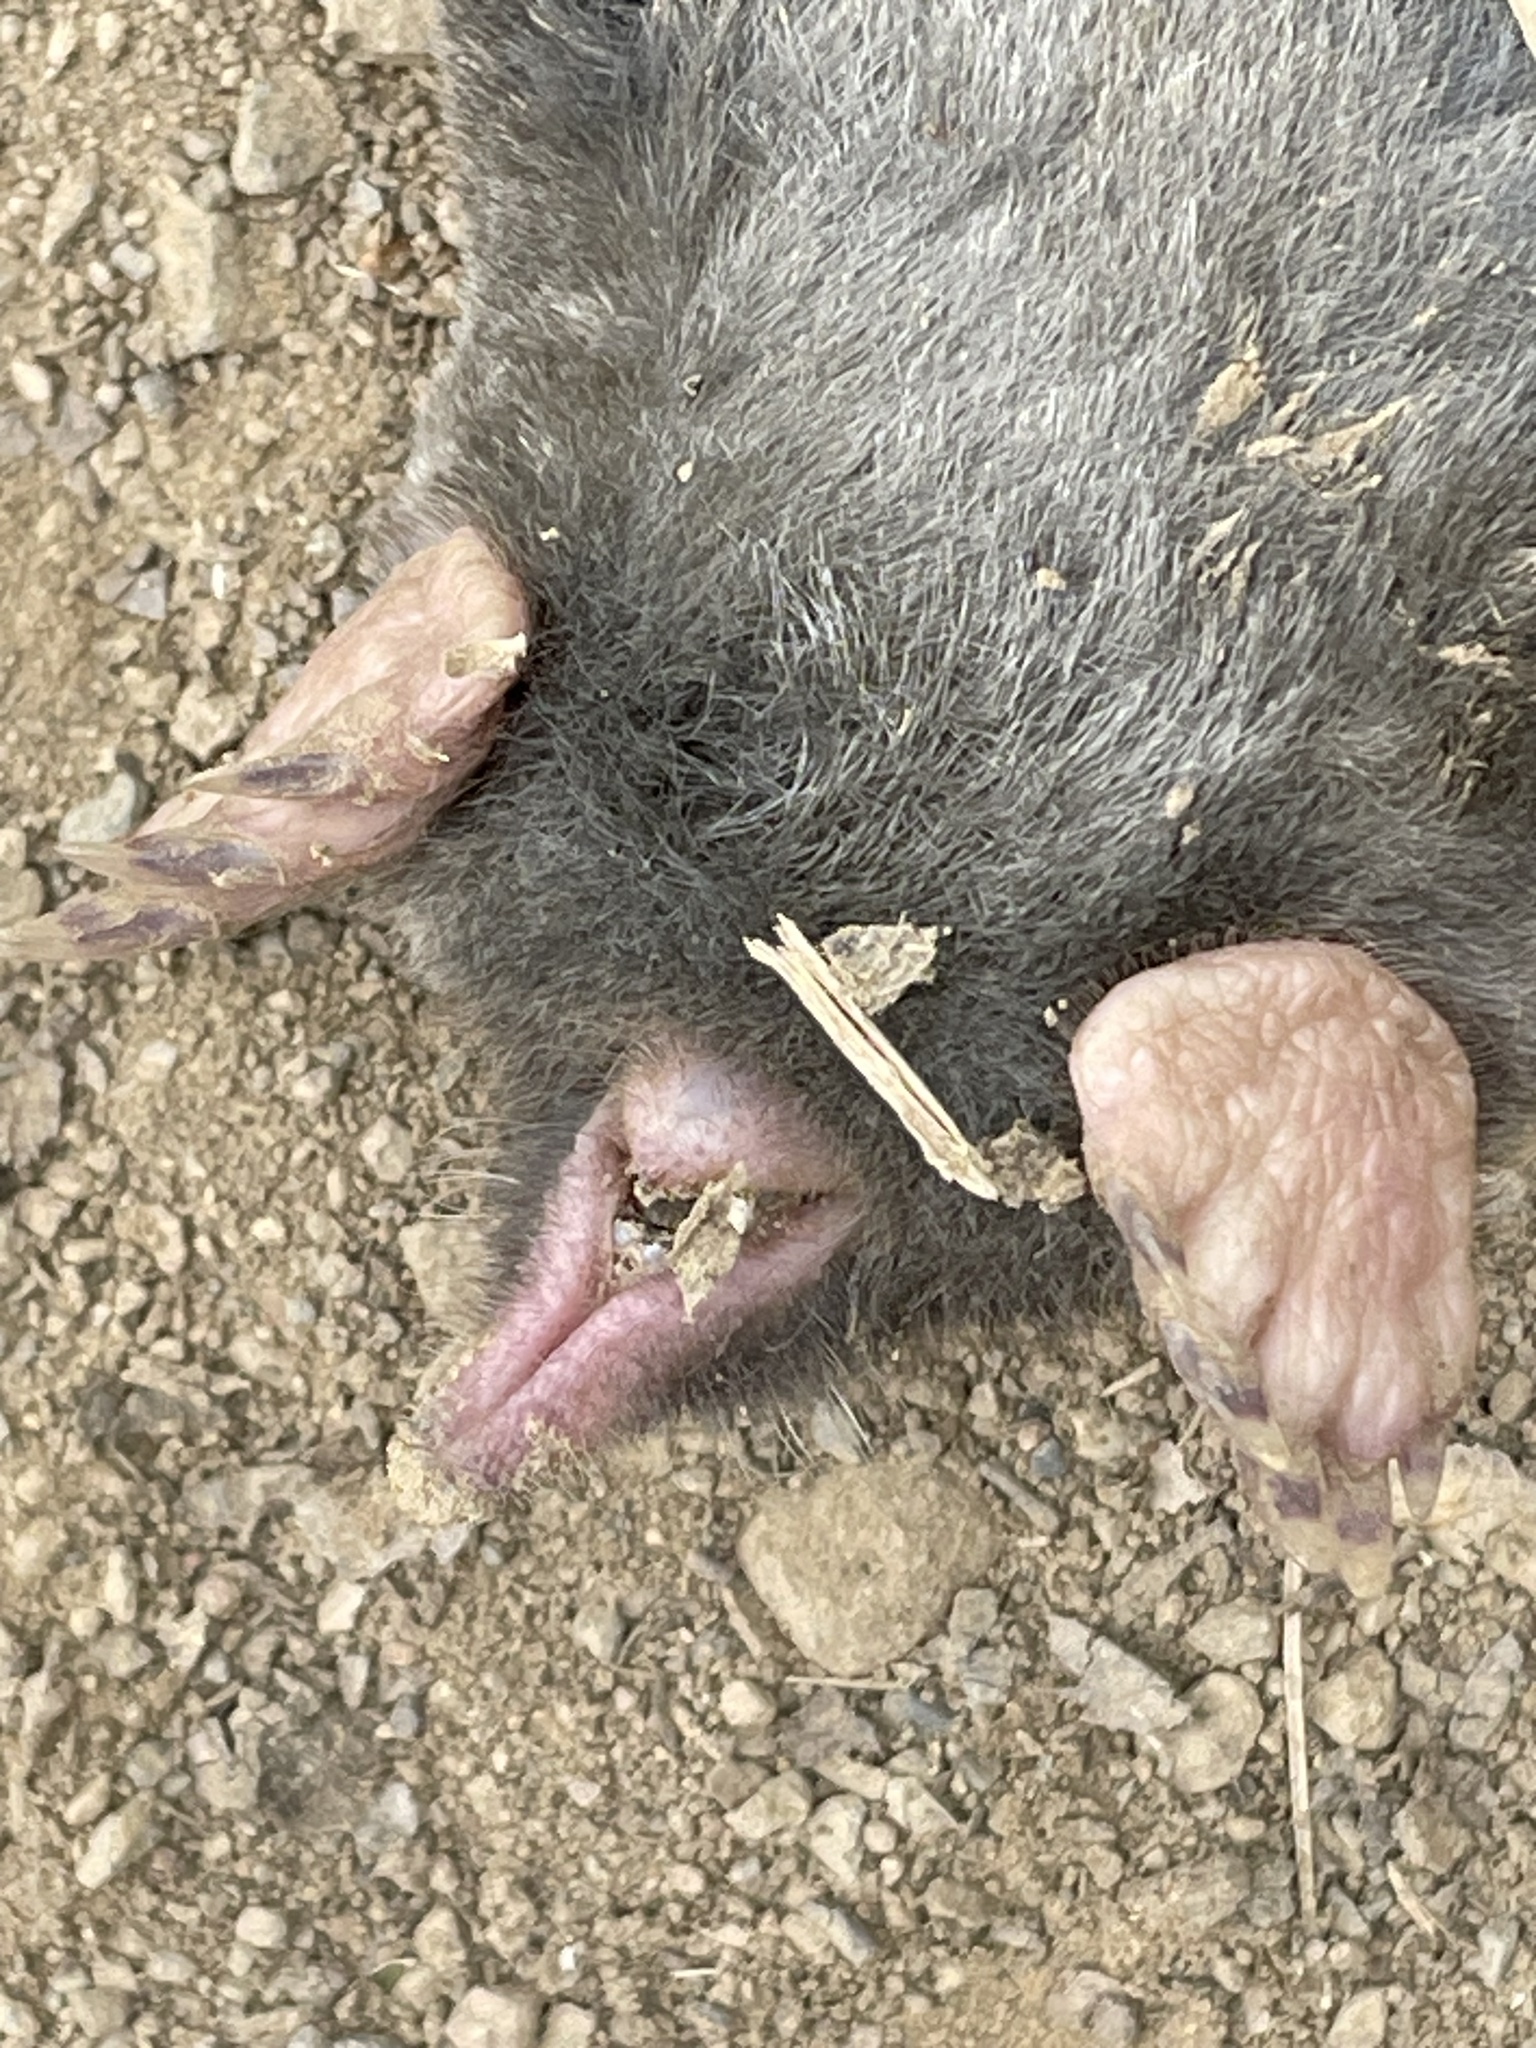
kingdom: Animalia
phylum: Chordata
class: Mammalia
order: Soricomorpha
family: Talpidae
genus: Scapanus
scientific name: Scapanus latimanus
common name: Broad-footed mole
